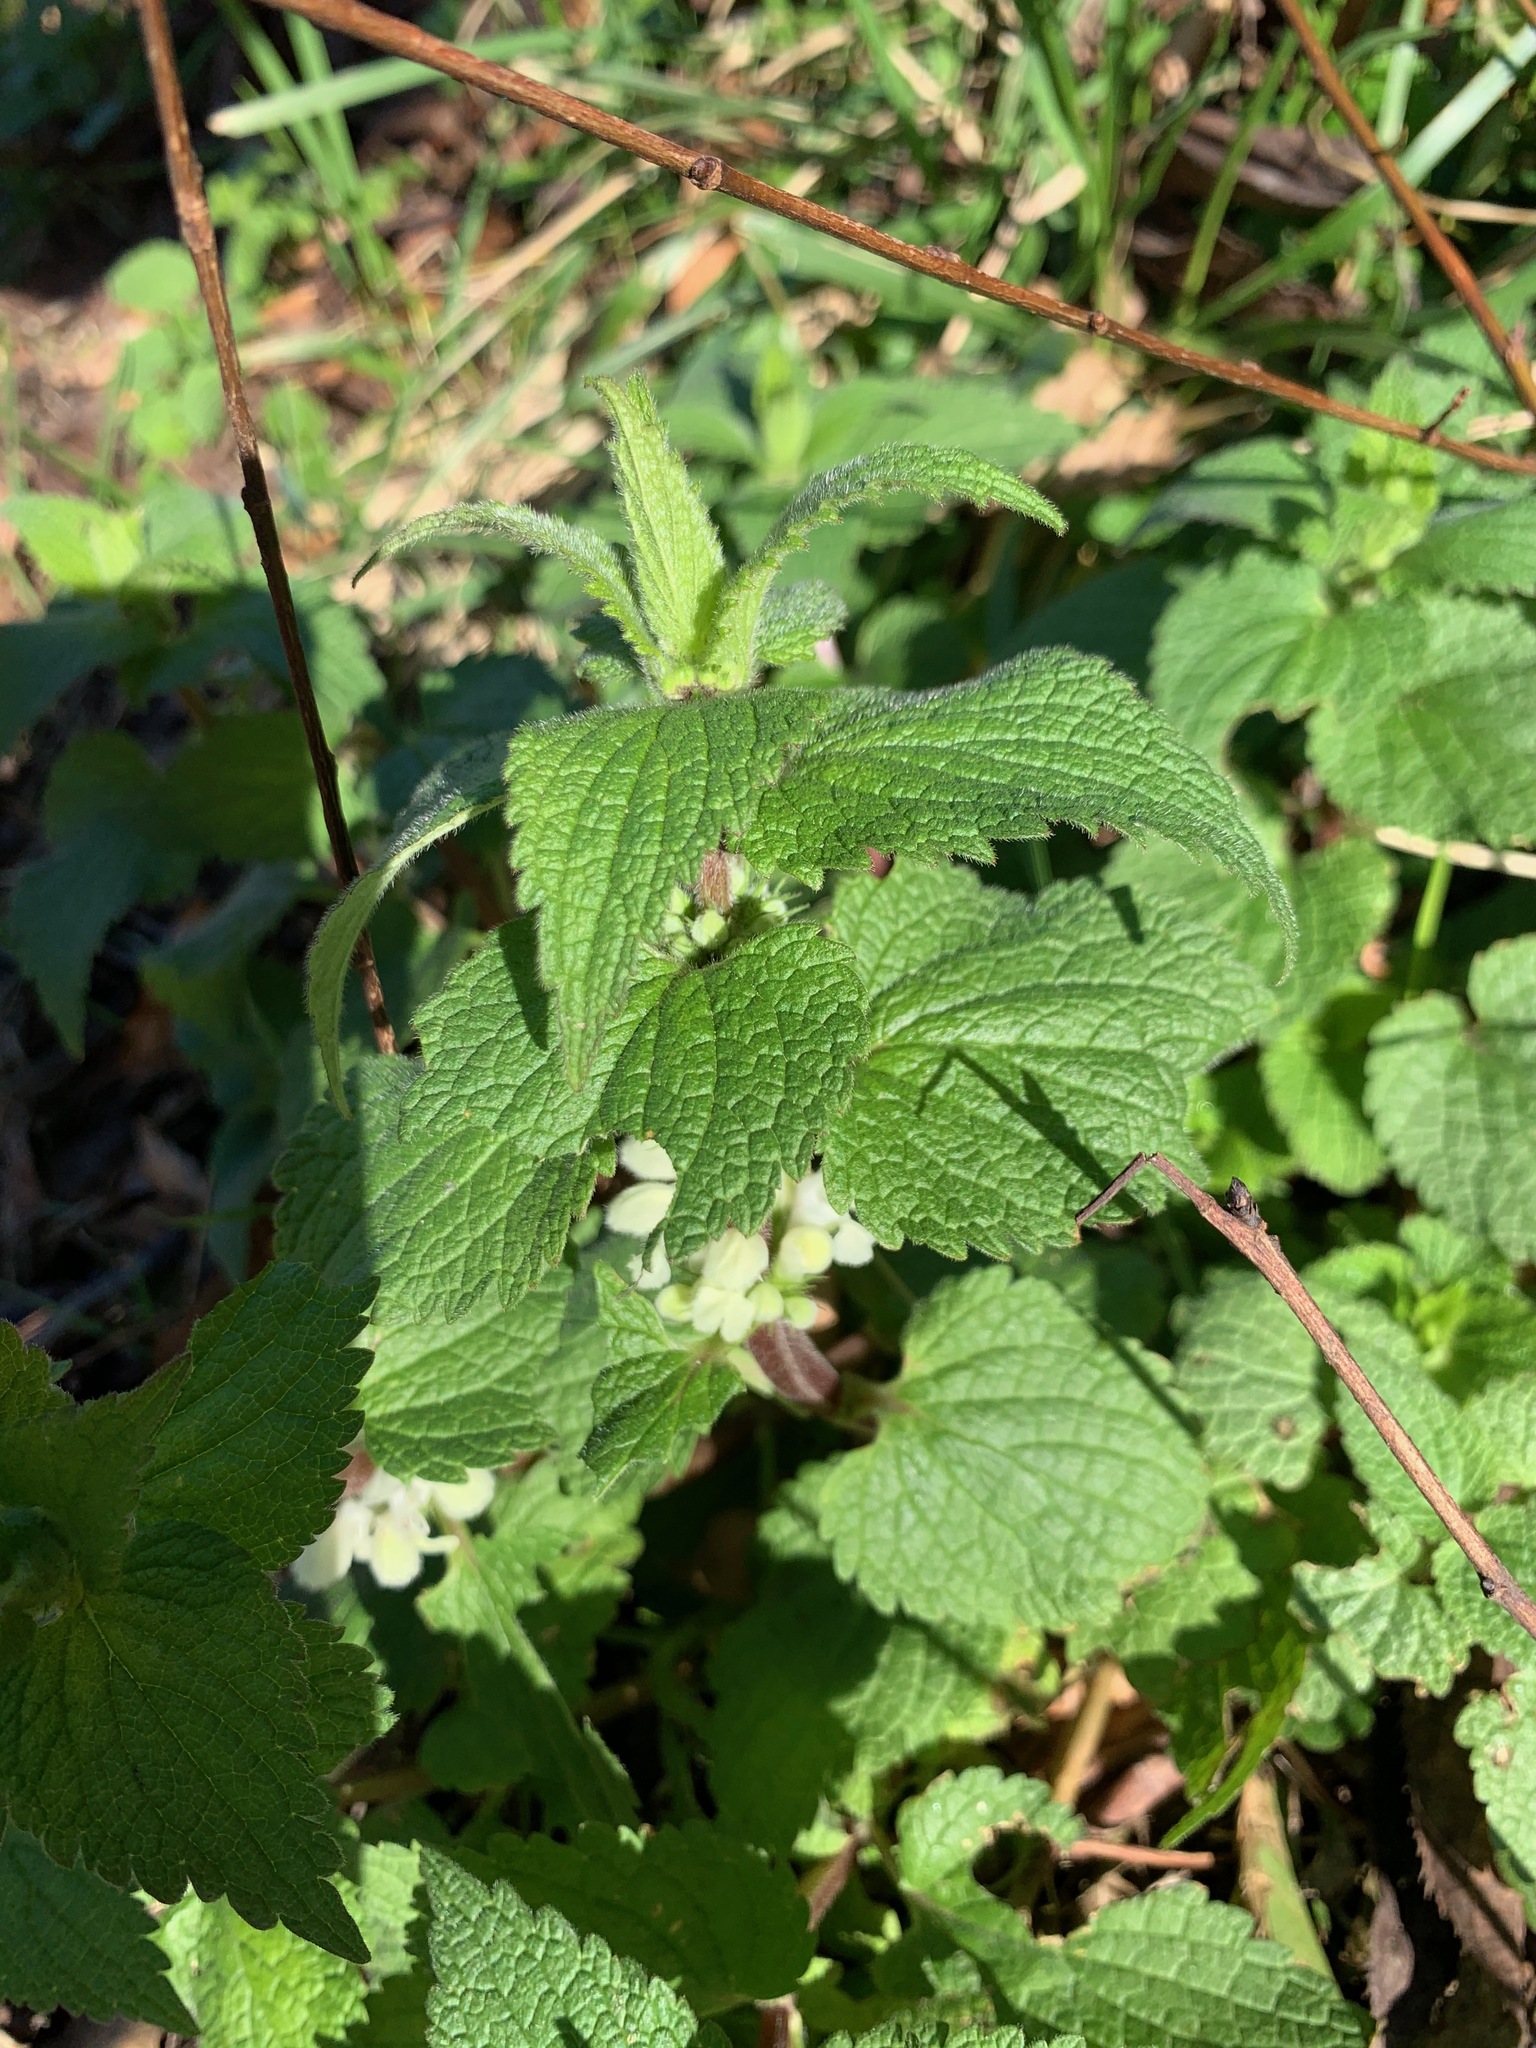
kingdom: Plantae
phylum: Tracheophyta
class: Magnoliopsida
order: Lamiales
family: Lamiaceae
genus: Lamium
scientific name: Lamium album
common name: White dead-nettle
